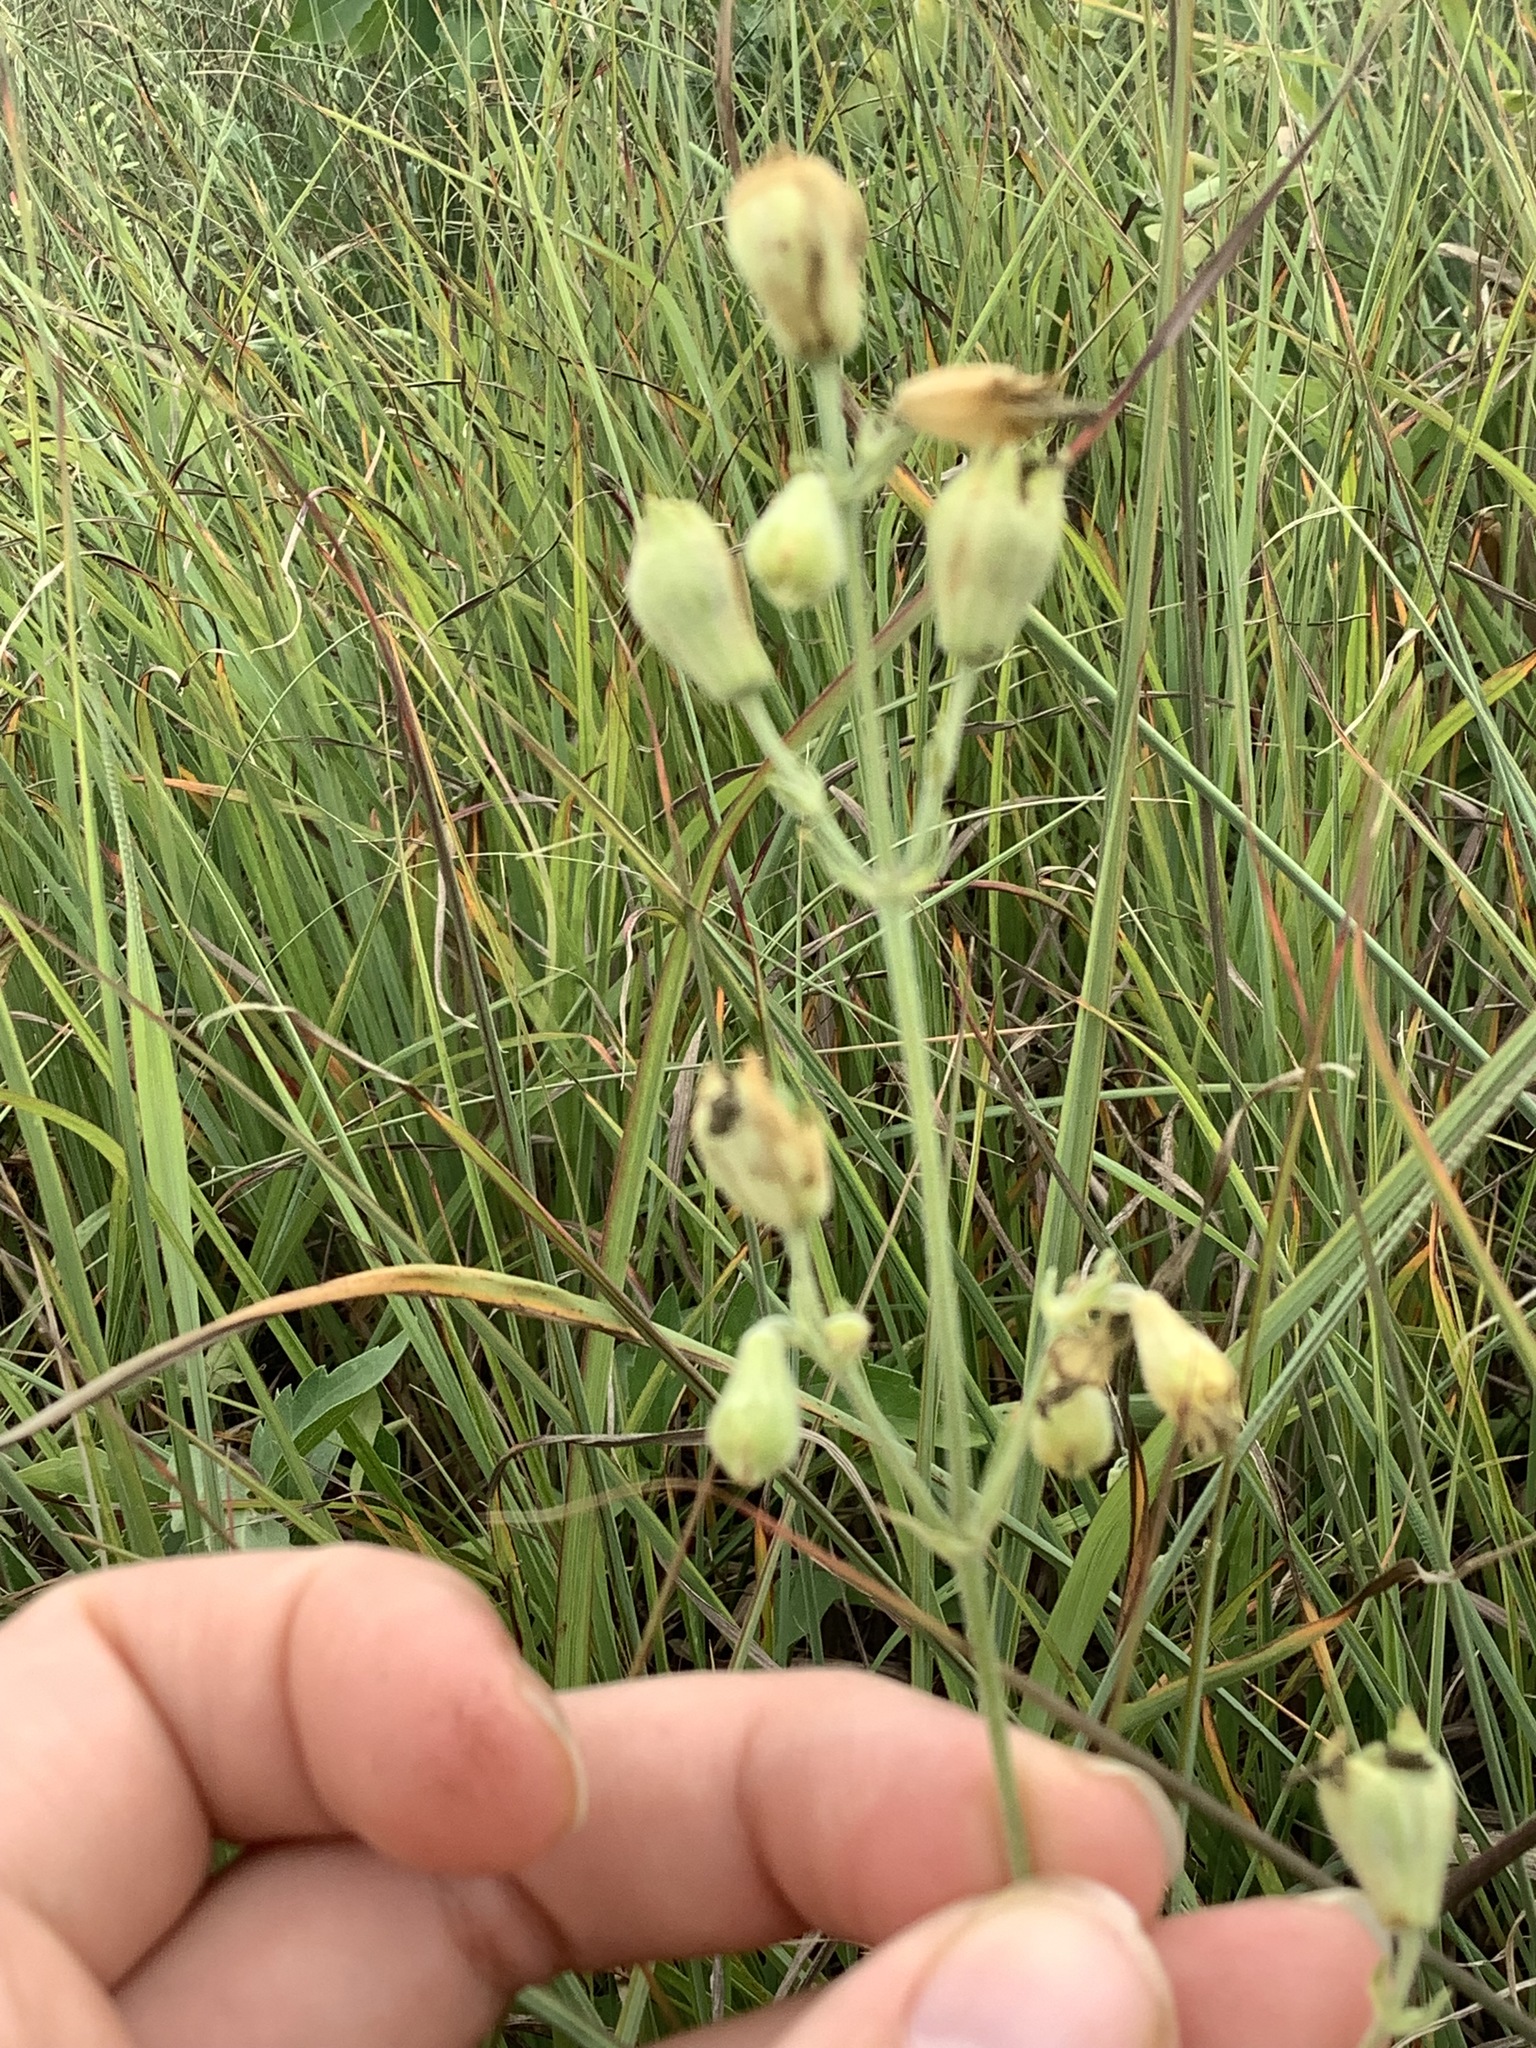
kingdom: Plantae
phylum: Tracheophyta
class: Magnoliopsida
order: Caryophyllales
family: Caryophyllaceae
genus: Silene
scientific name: Silene stellata
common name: Starry campion
